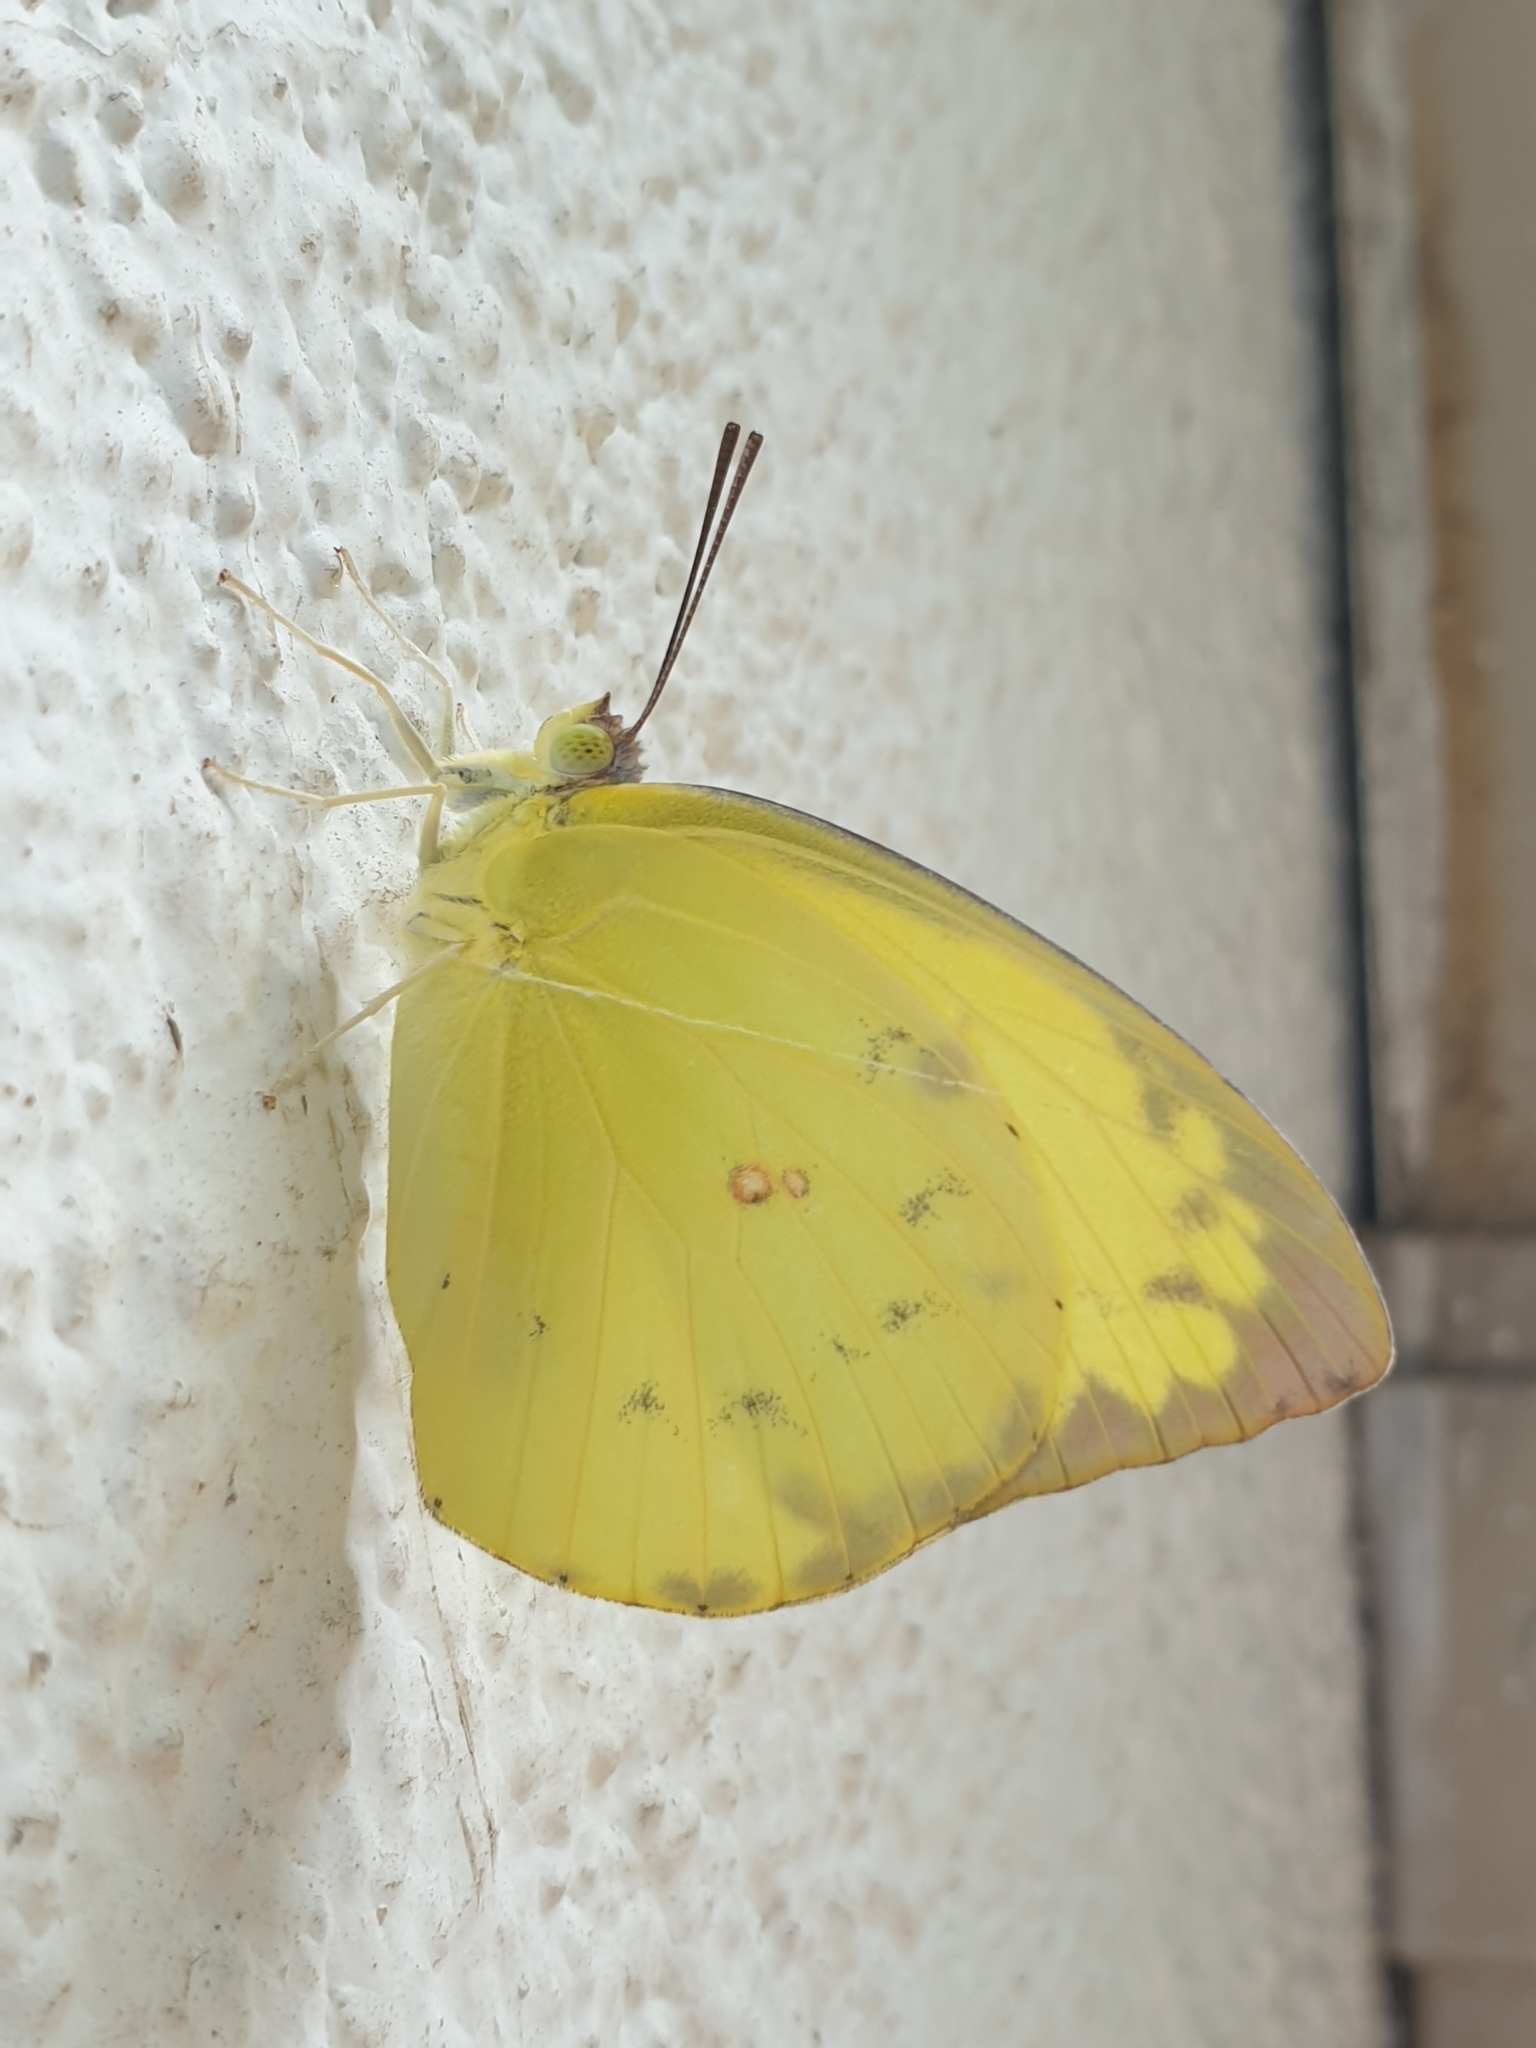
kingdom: Animalia
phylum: Arthropoda
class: Insecta
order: Lepidoptera
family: Pieridae
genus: Catopsilia
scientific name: Catopsilia scylla
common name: Orange emigrant
